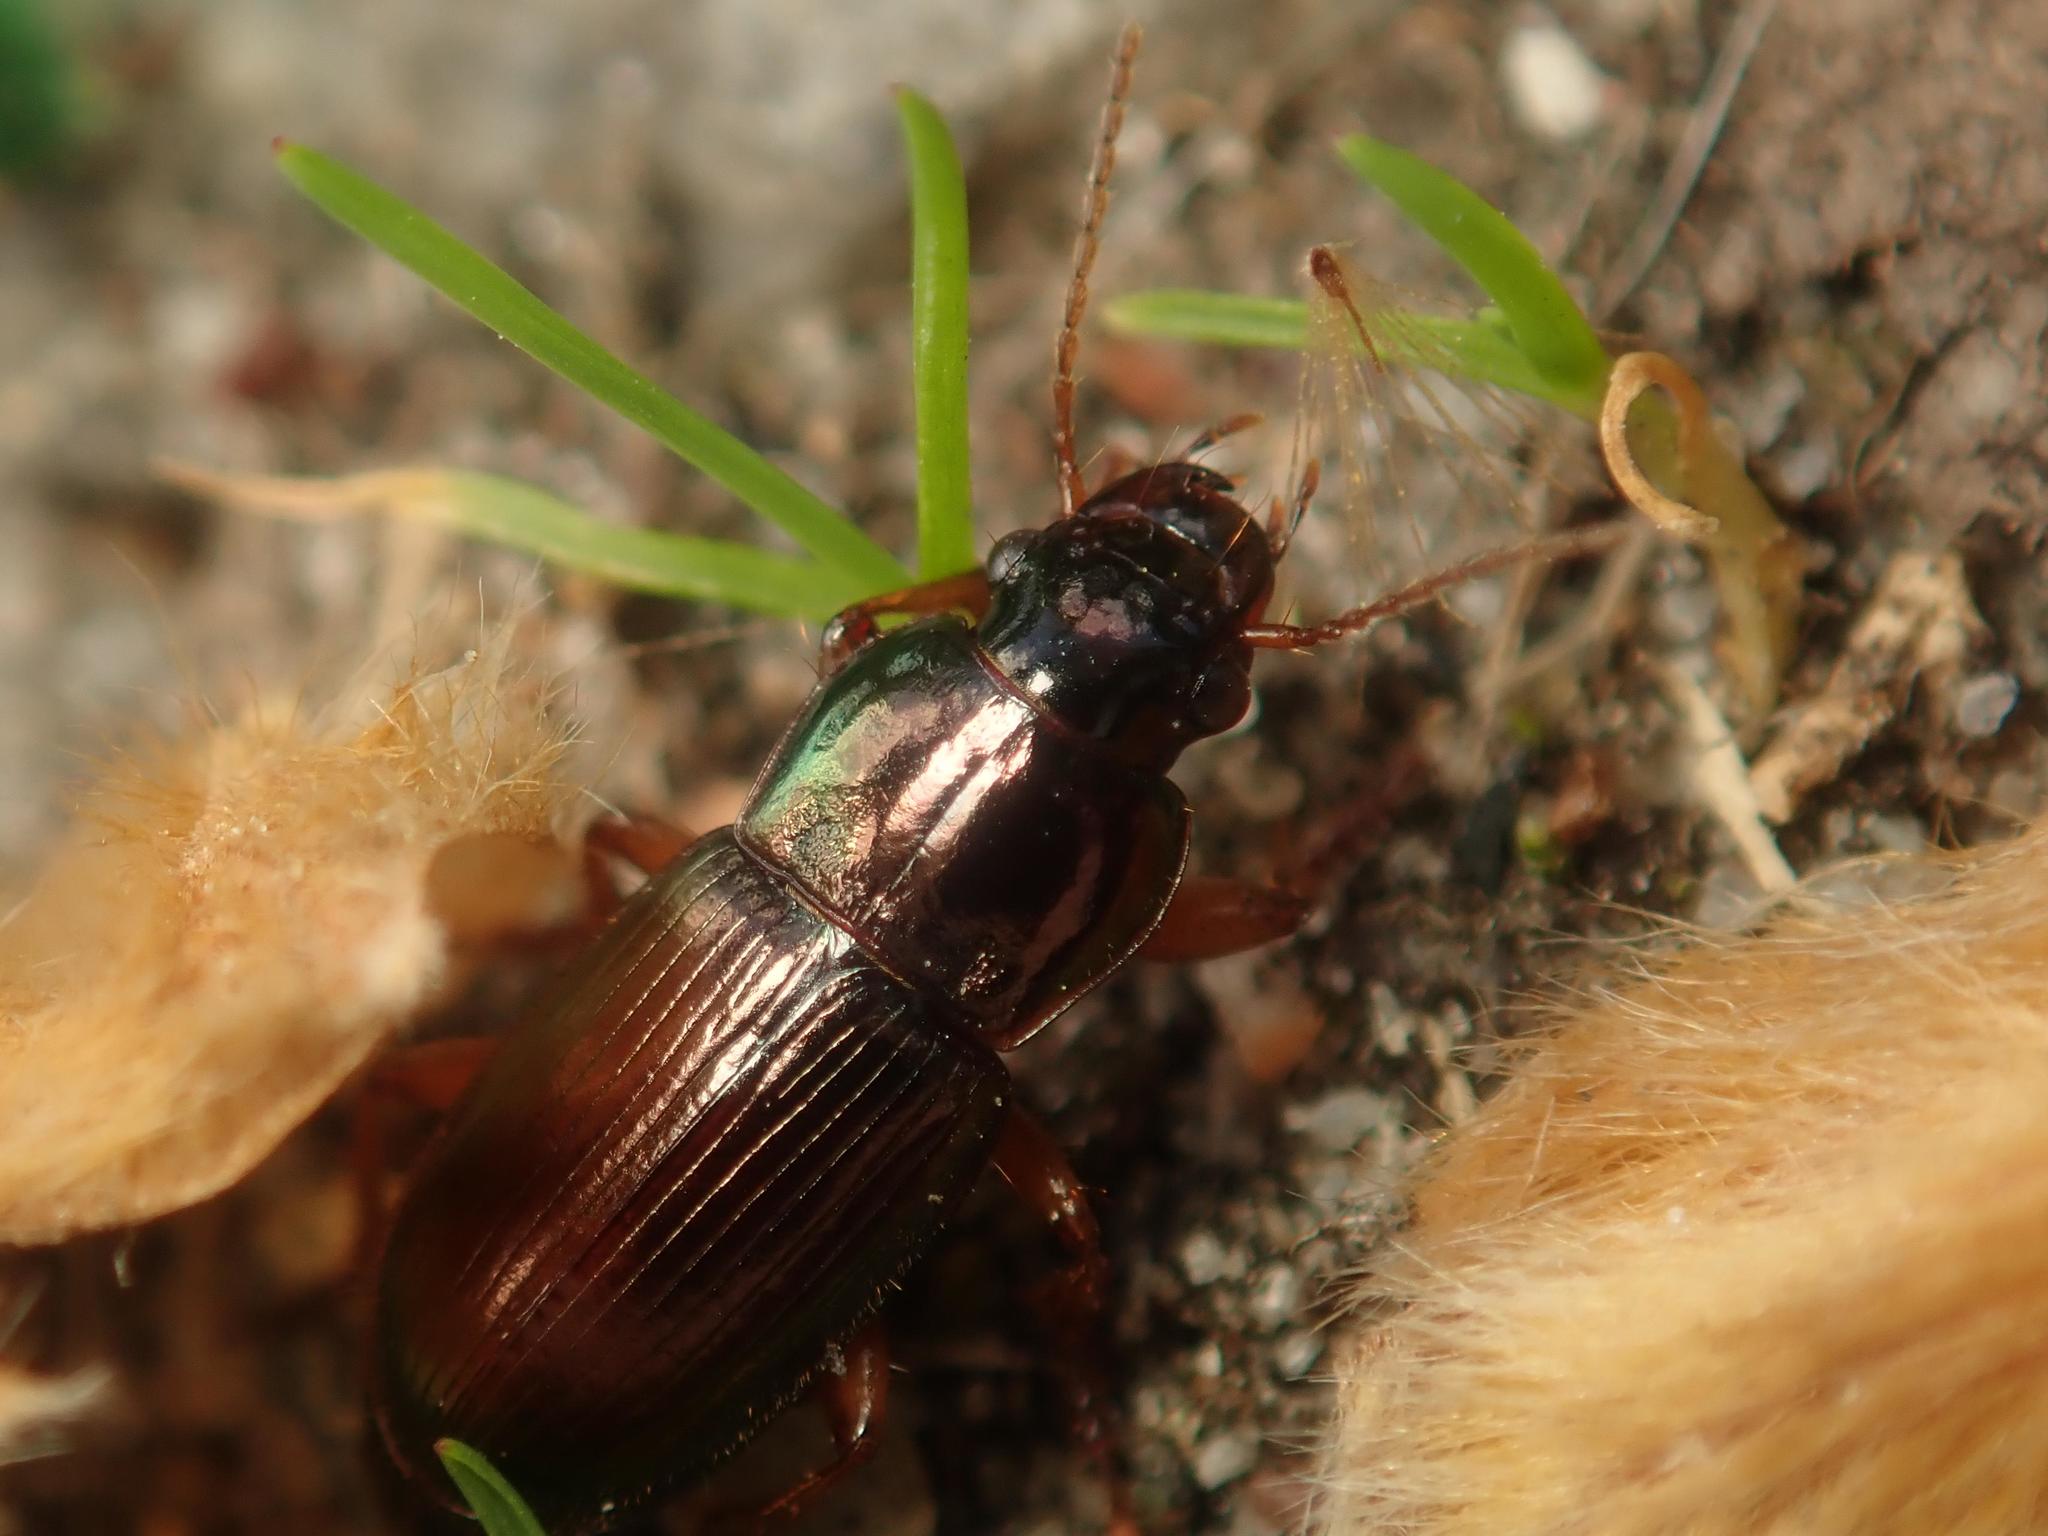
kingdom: Animalia
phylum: Arthropoda
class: Insecta
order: Coleoptera
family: Carabidae
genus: Harpalus
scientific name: Harpalus affinis
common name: Polychrome harp ground beetle
